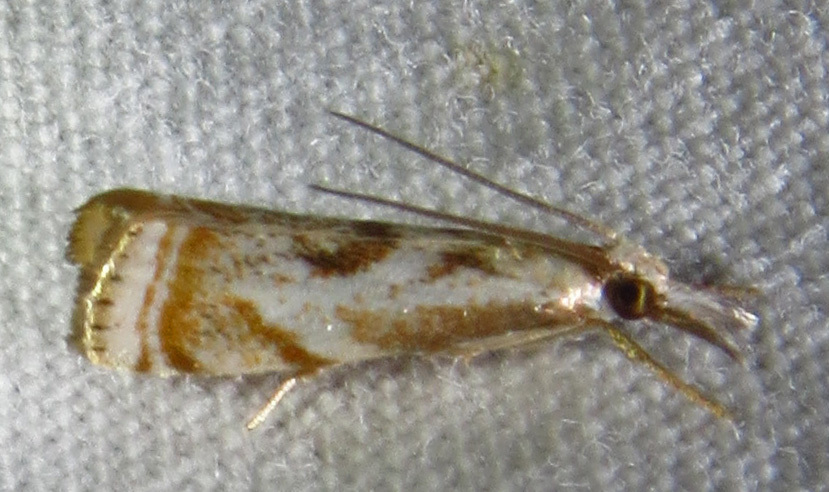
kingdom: Animalia
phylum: Arthropoda
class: Insecta
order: Lepidoptera
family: Crambidae
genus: Microcrambus
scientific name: Microcrambus elegans
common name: Elegant grass-veneer
